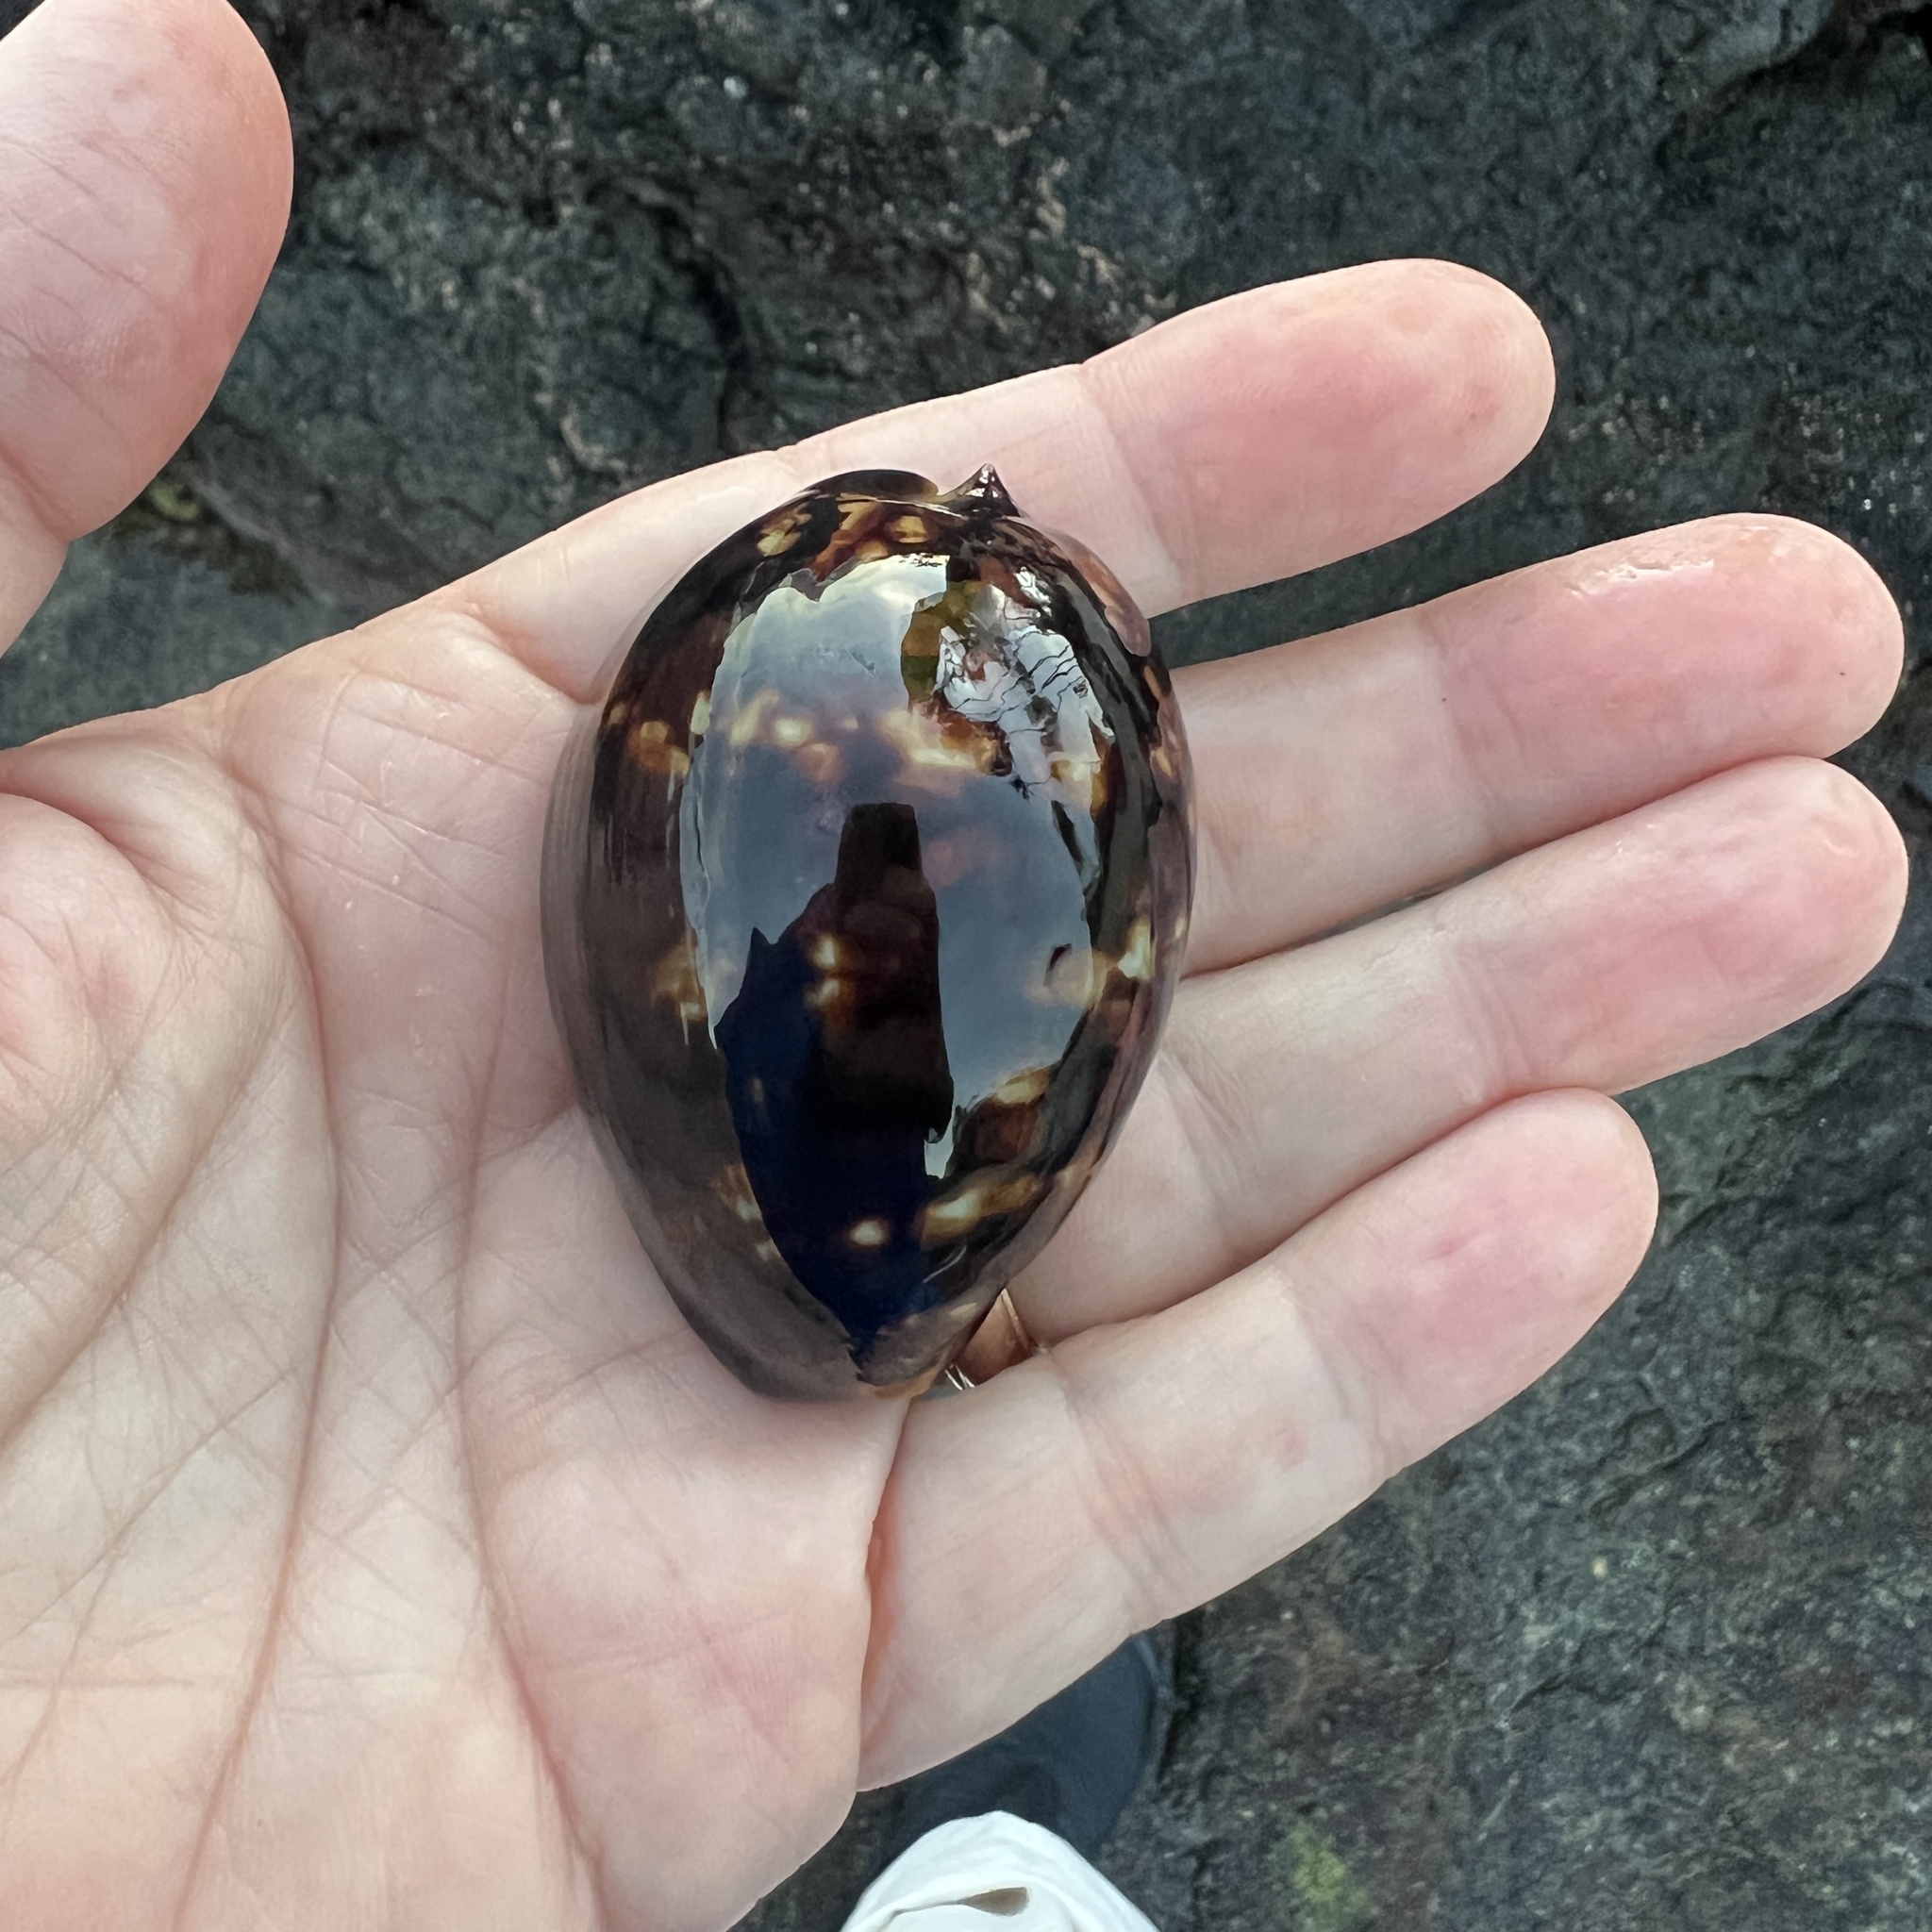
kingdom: Animalia
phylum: Mollusca
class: Gastropoda
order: Littorinimorpha
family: Cypraeidae
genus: Mauritia
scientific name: Mauritia mauritiana
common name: Hump-backed cowrie
